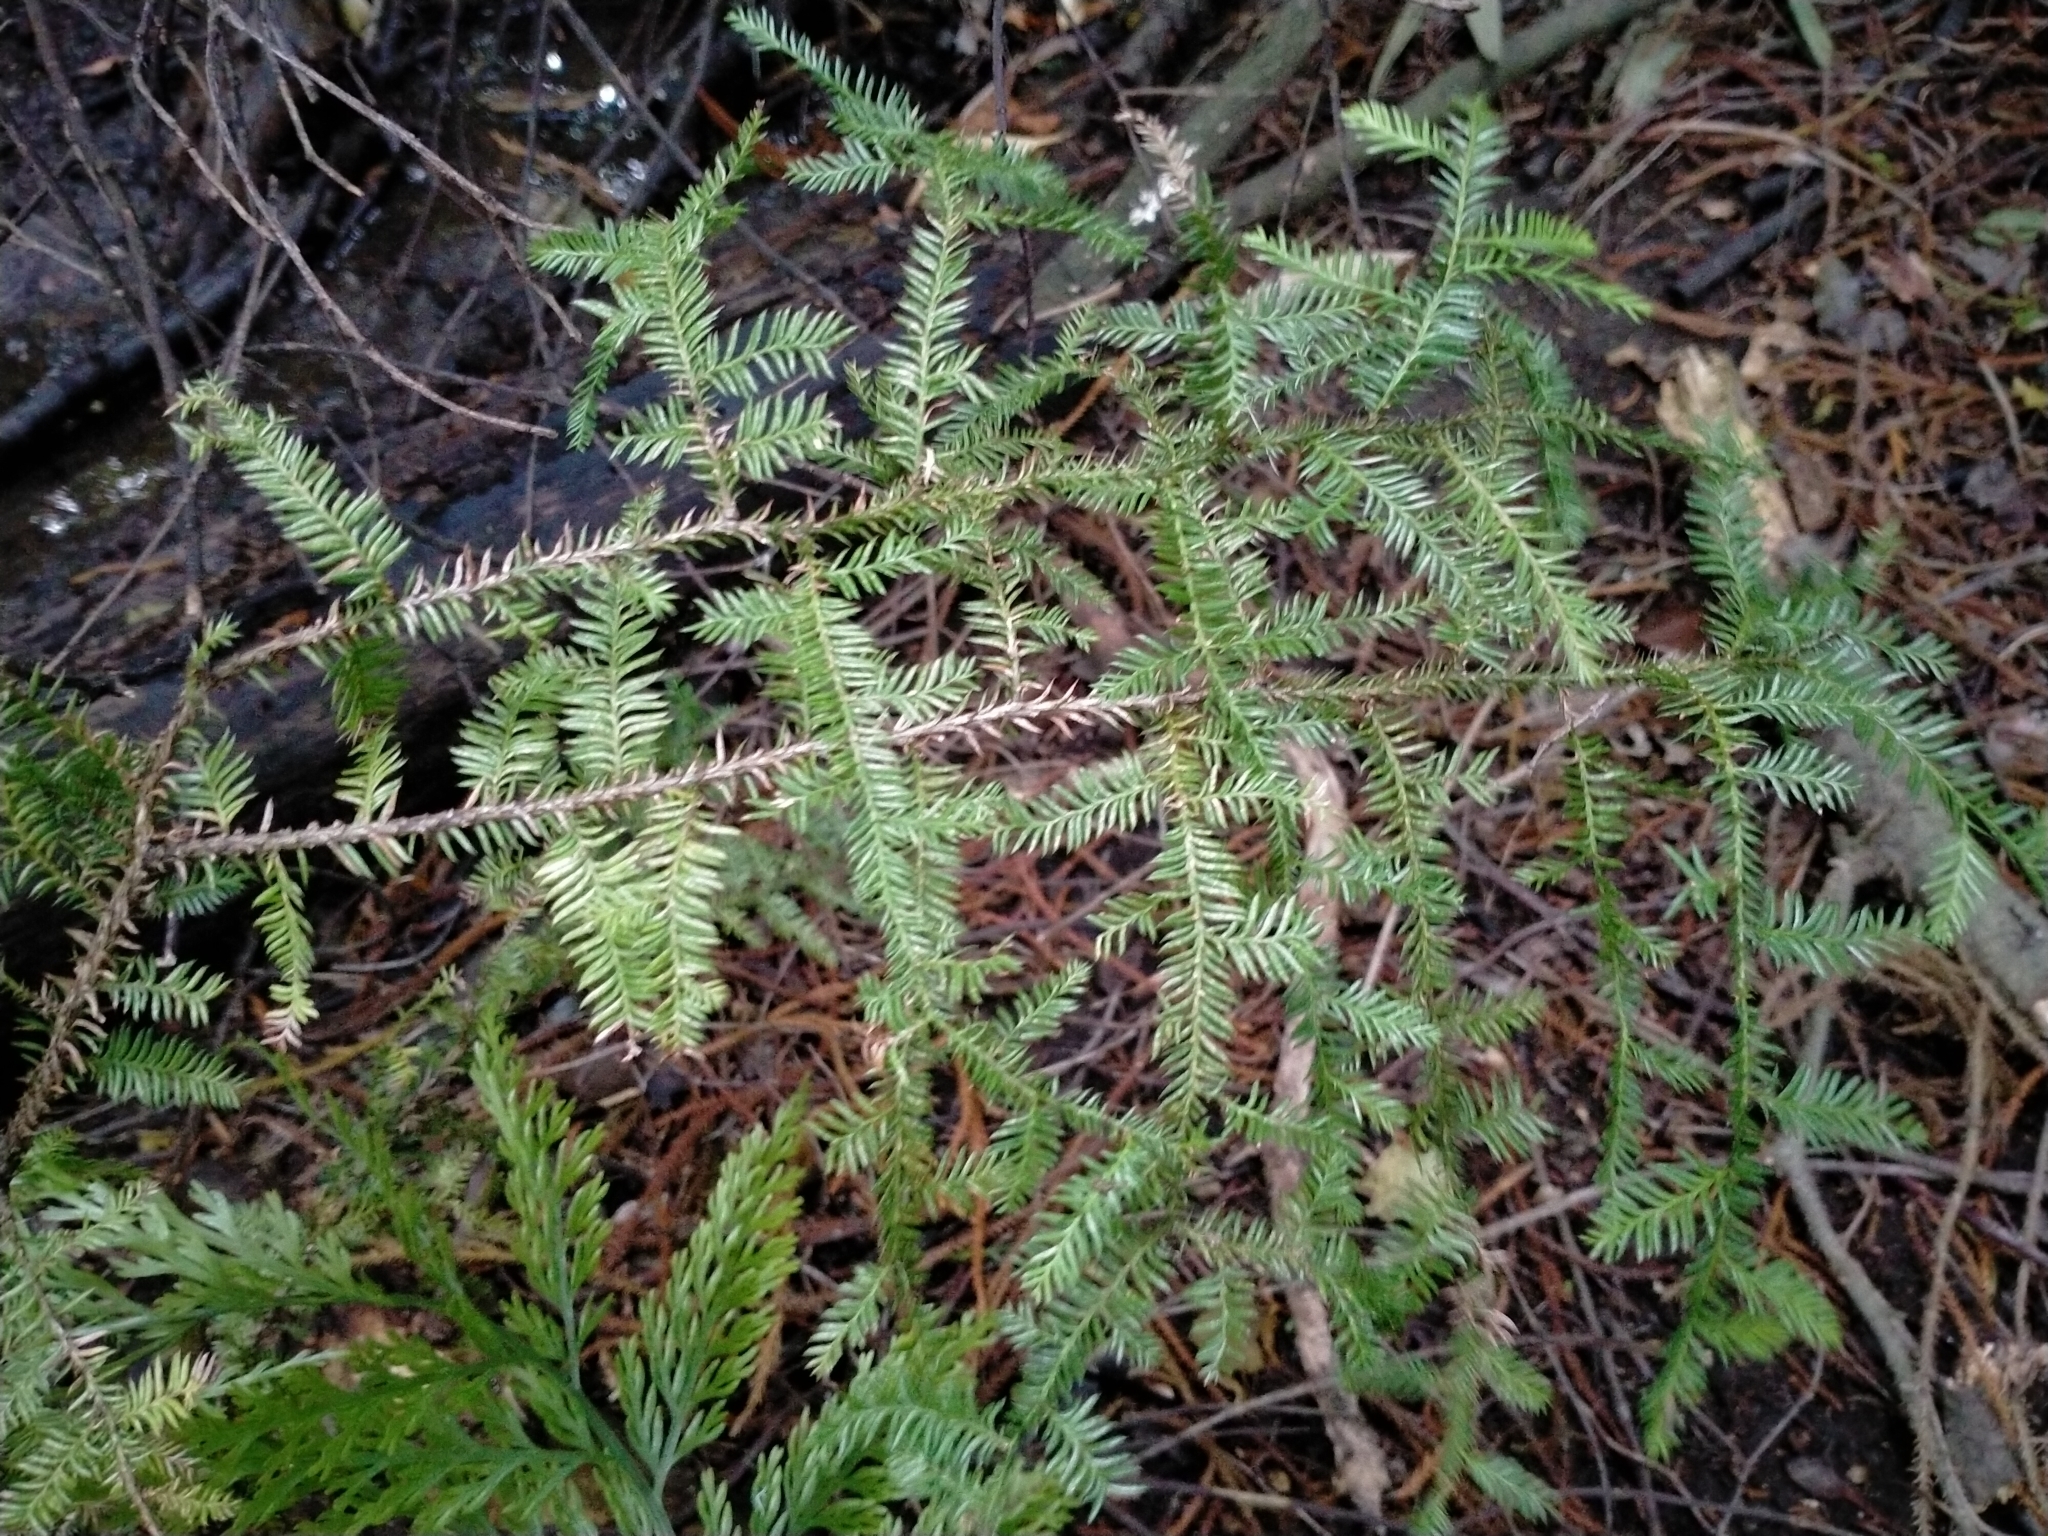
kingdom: Plantae
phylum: Tracheophyta
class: Pinopsida
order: Pinales
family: Podocarpaceae
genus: Dacrycarpus
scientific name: Dacrycarpus dacrydioides
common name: White pine
